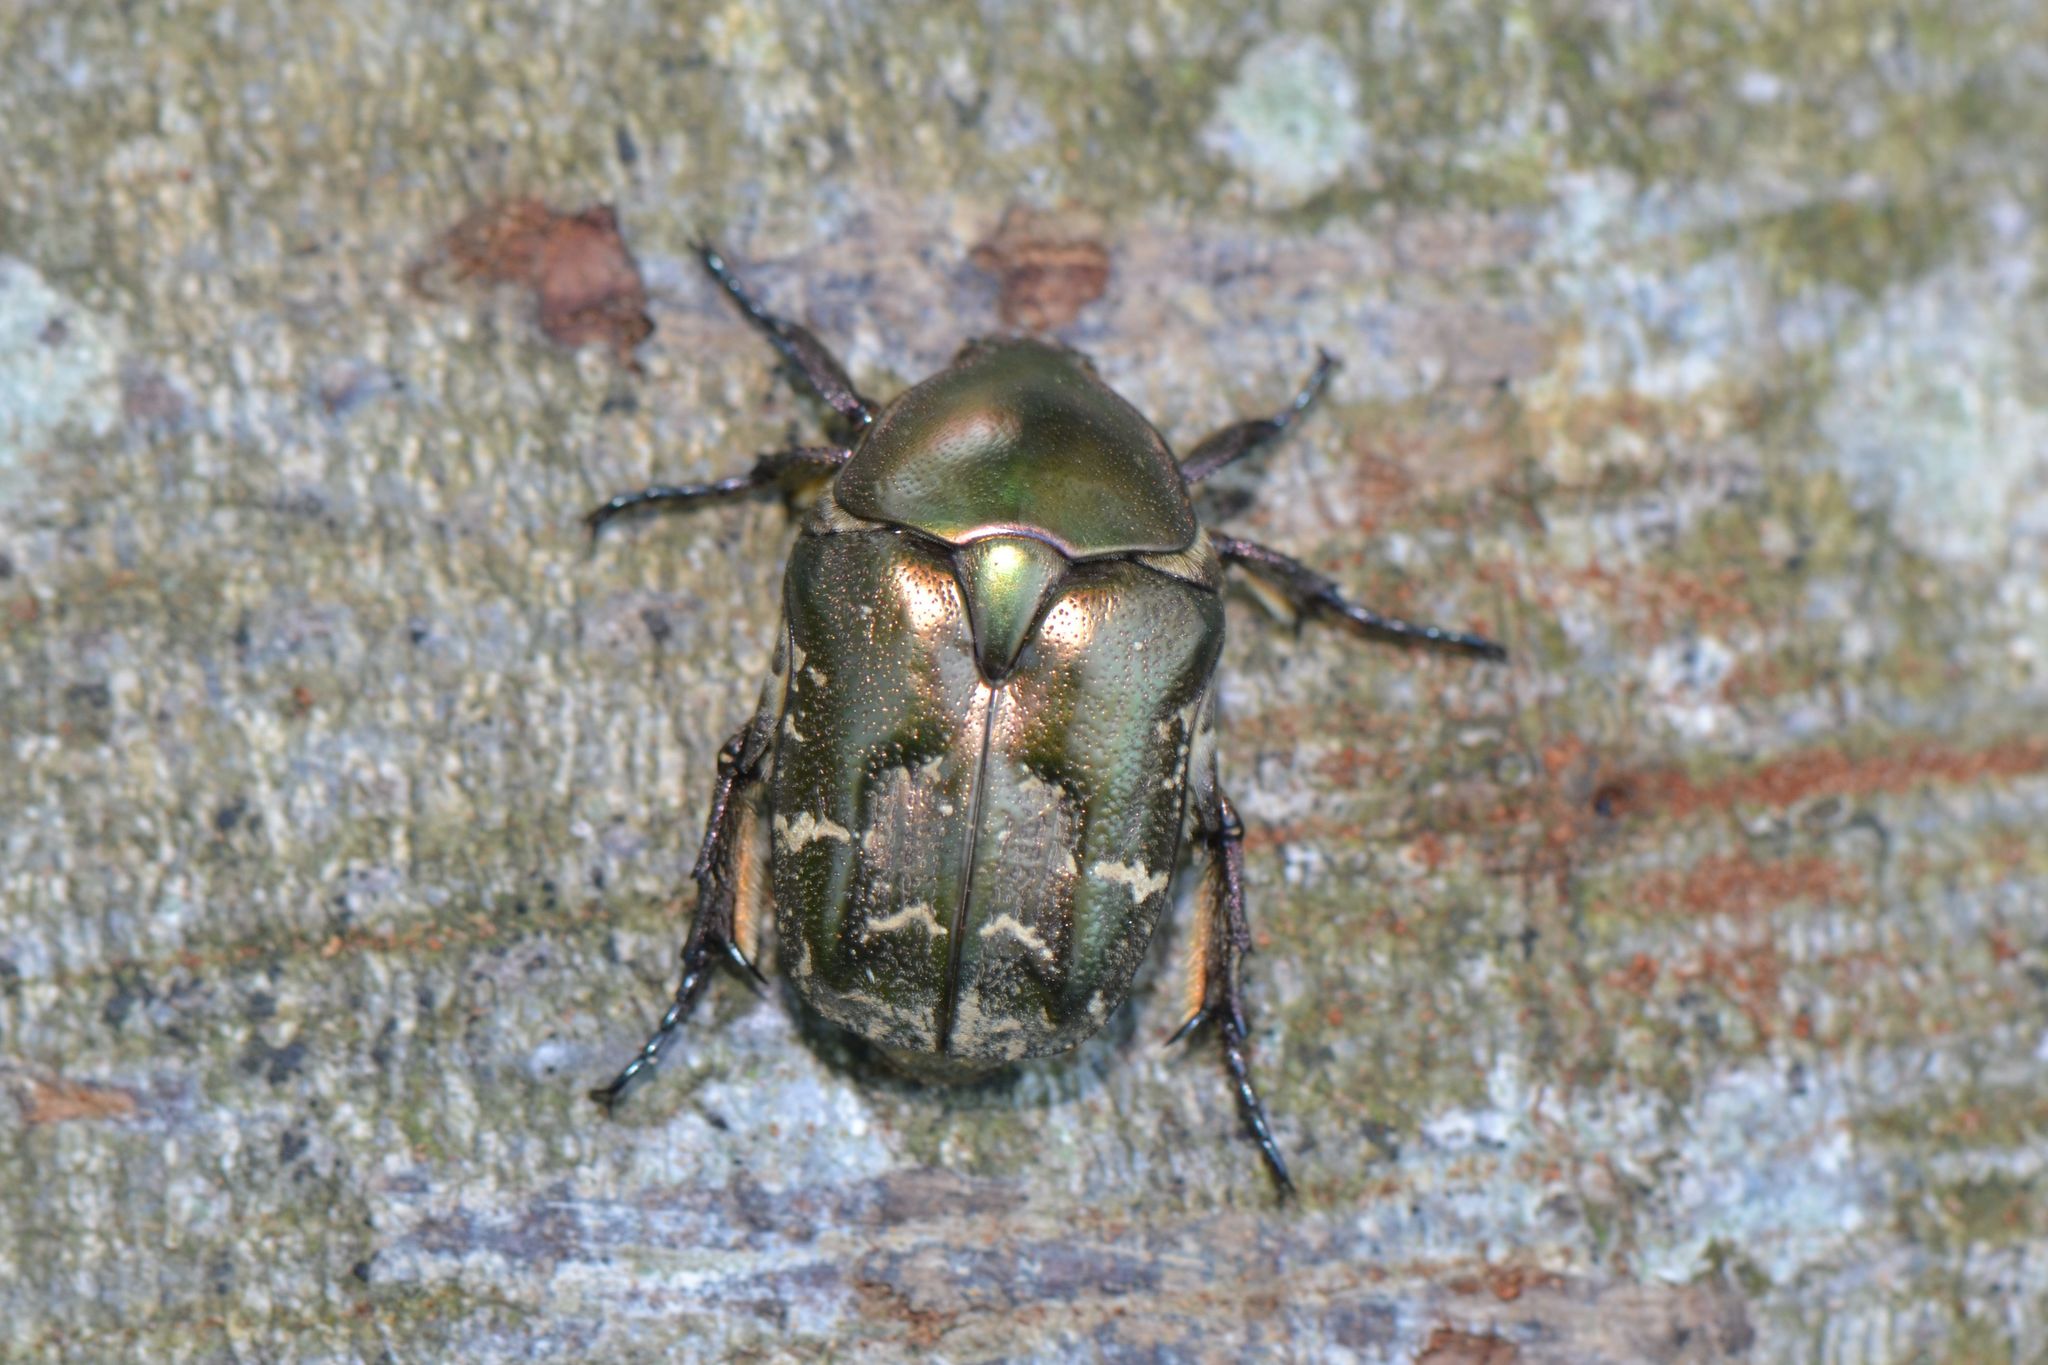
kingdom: Animalia
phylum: Arthropoda
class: Insecta
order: Coleoptera
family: Scarabaeidae
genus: Protaetia
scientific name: Protaetia cuprea
